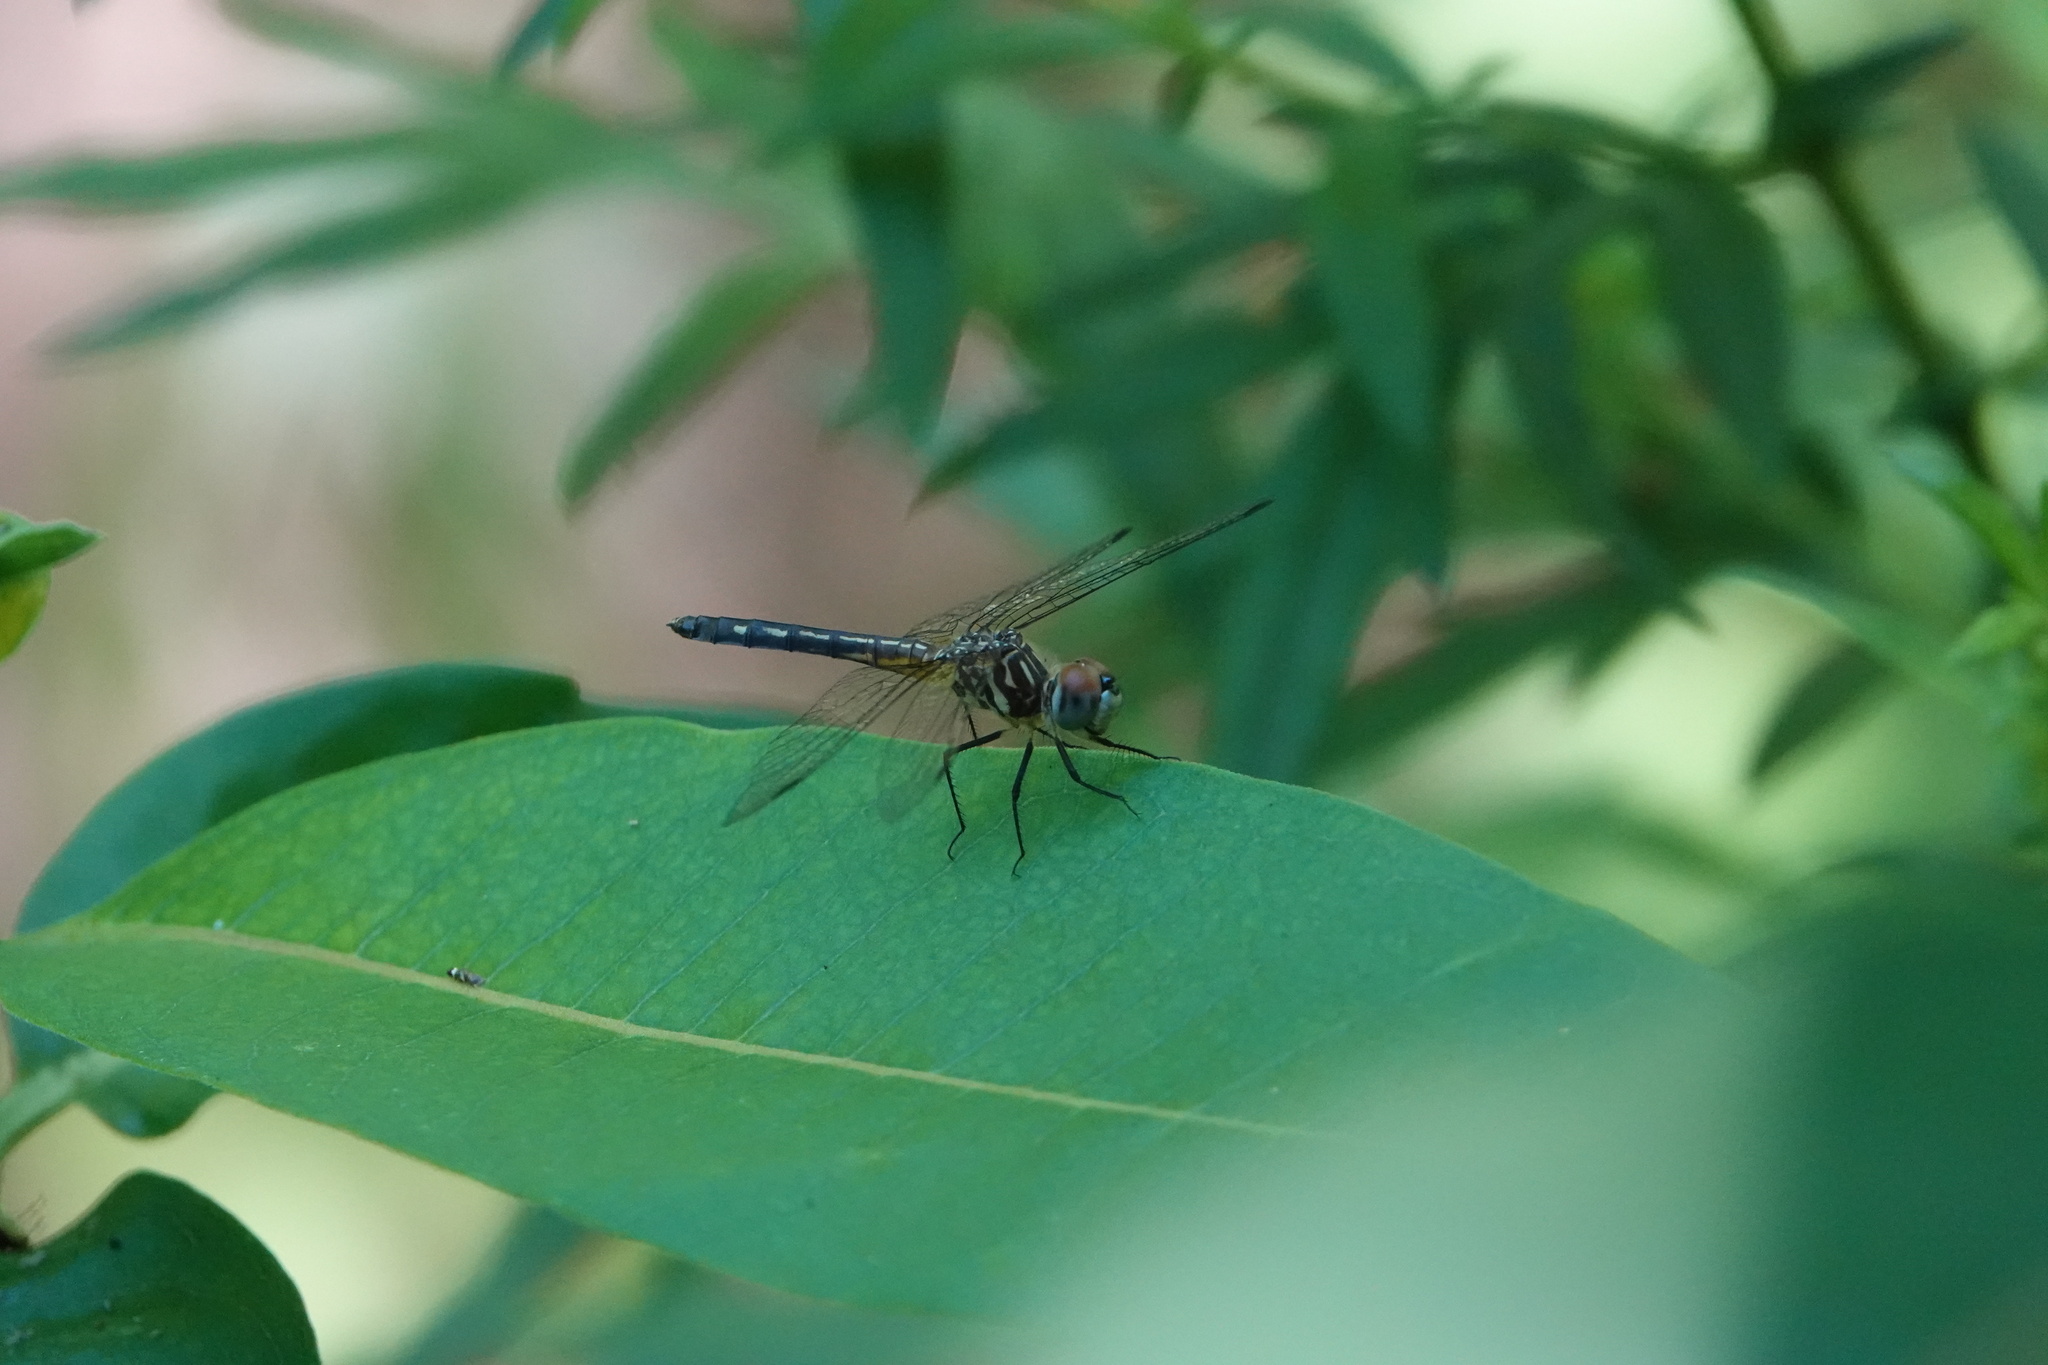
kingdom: Animalia
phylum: Arthropoda
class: Insecta
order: Odonata
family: Libellulidae
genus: Pachydiplax
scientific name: Pachydiplax longipennis
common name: Blue dasher
